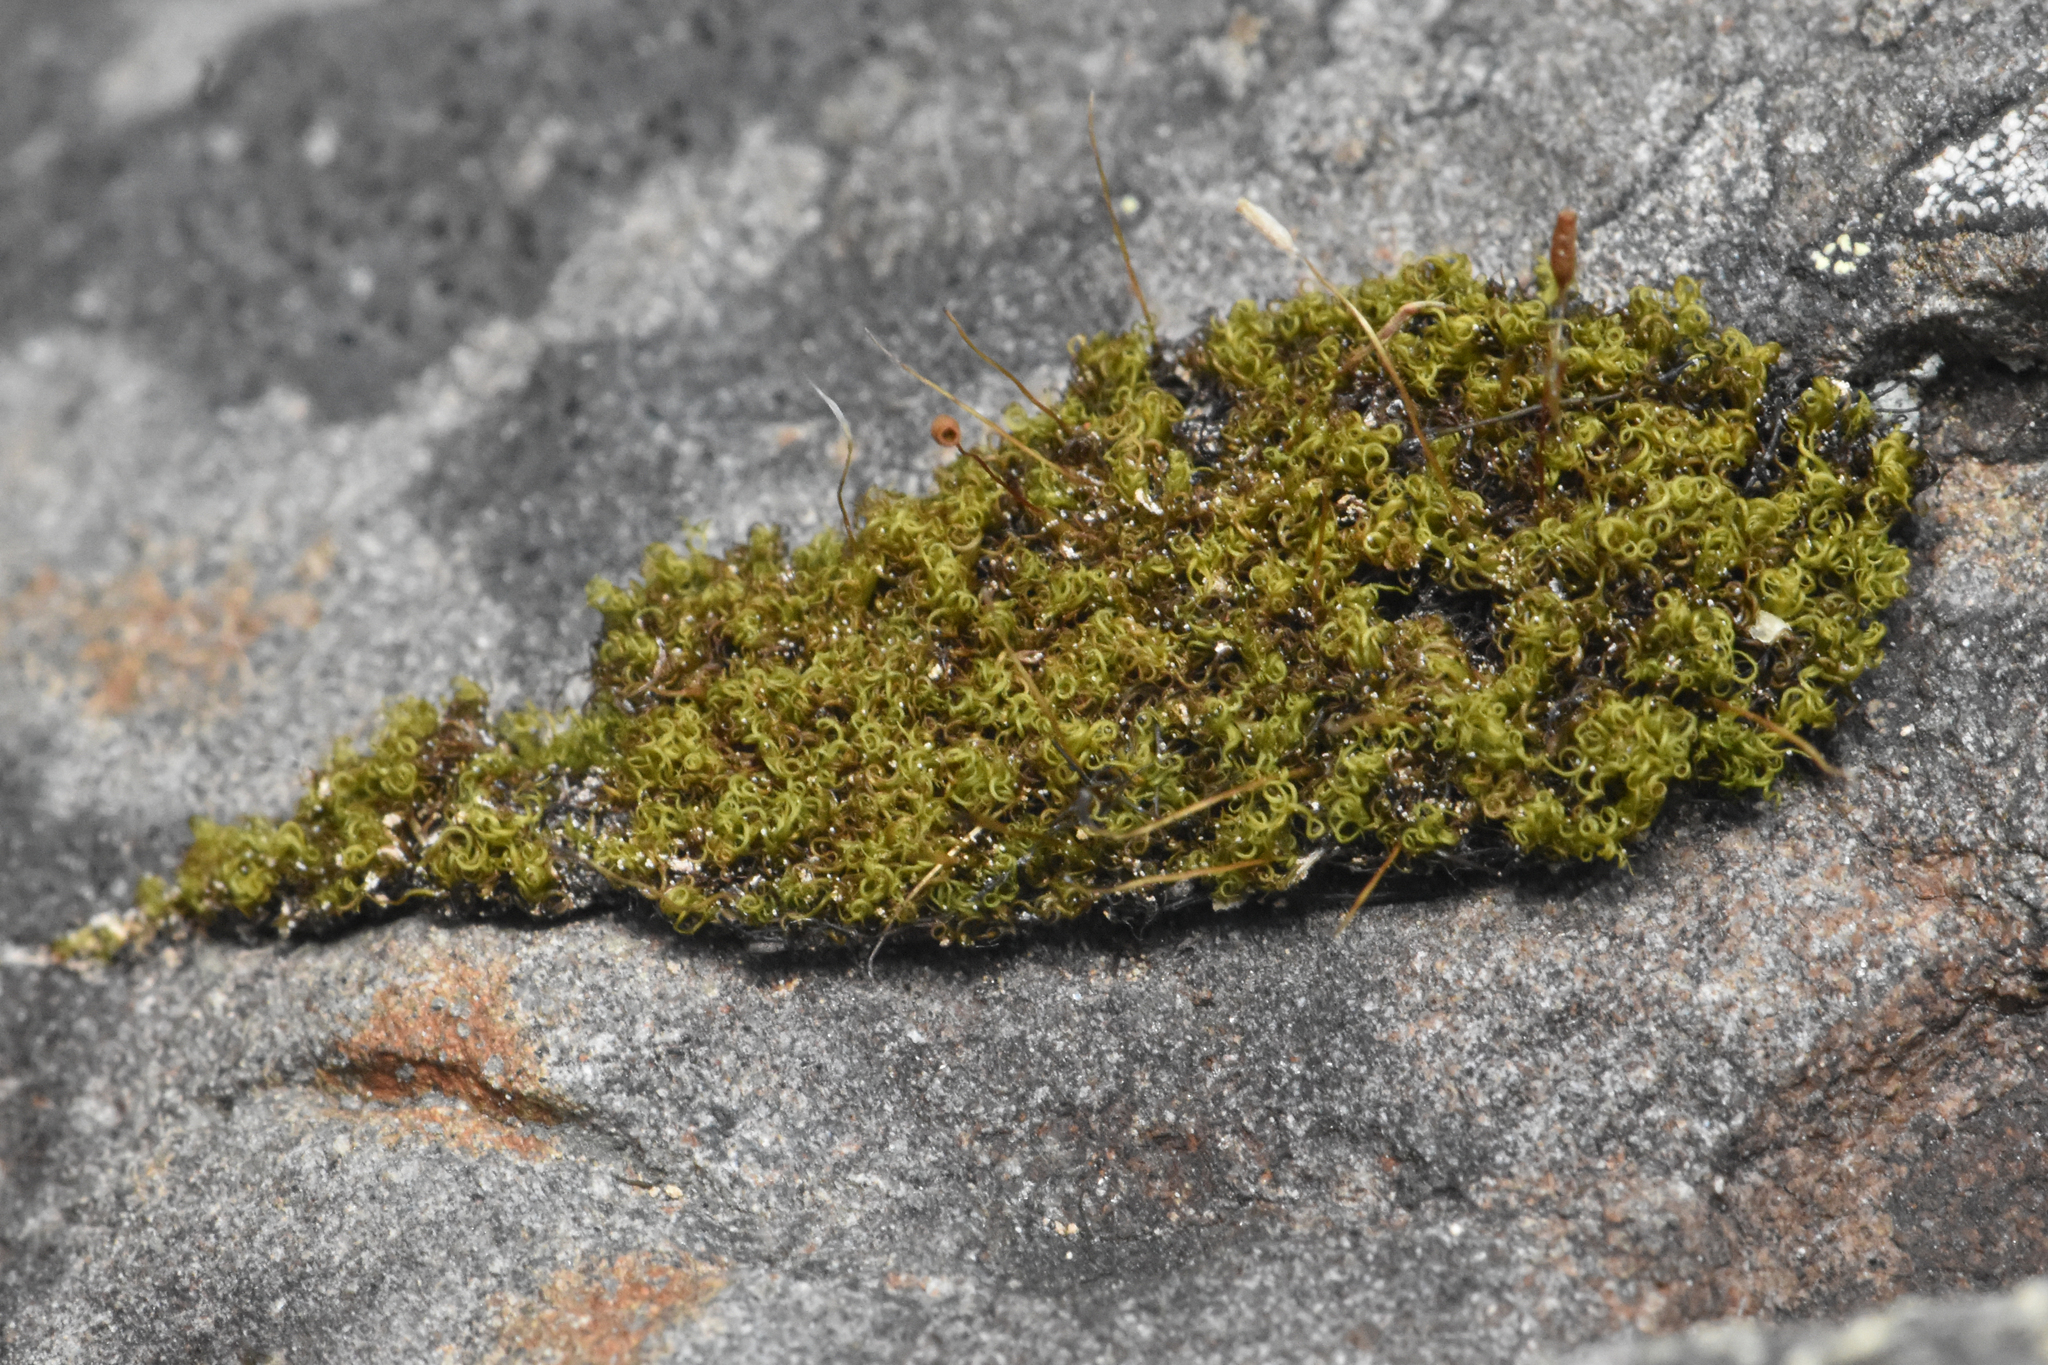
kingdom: Plantae
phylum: Bryophyta
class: Bryopsida
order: Scouleriales
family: Hymenolomataceae
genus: Hymenoloma
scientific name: Hymenoloma crispulum
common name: Mountain pincushion
